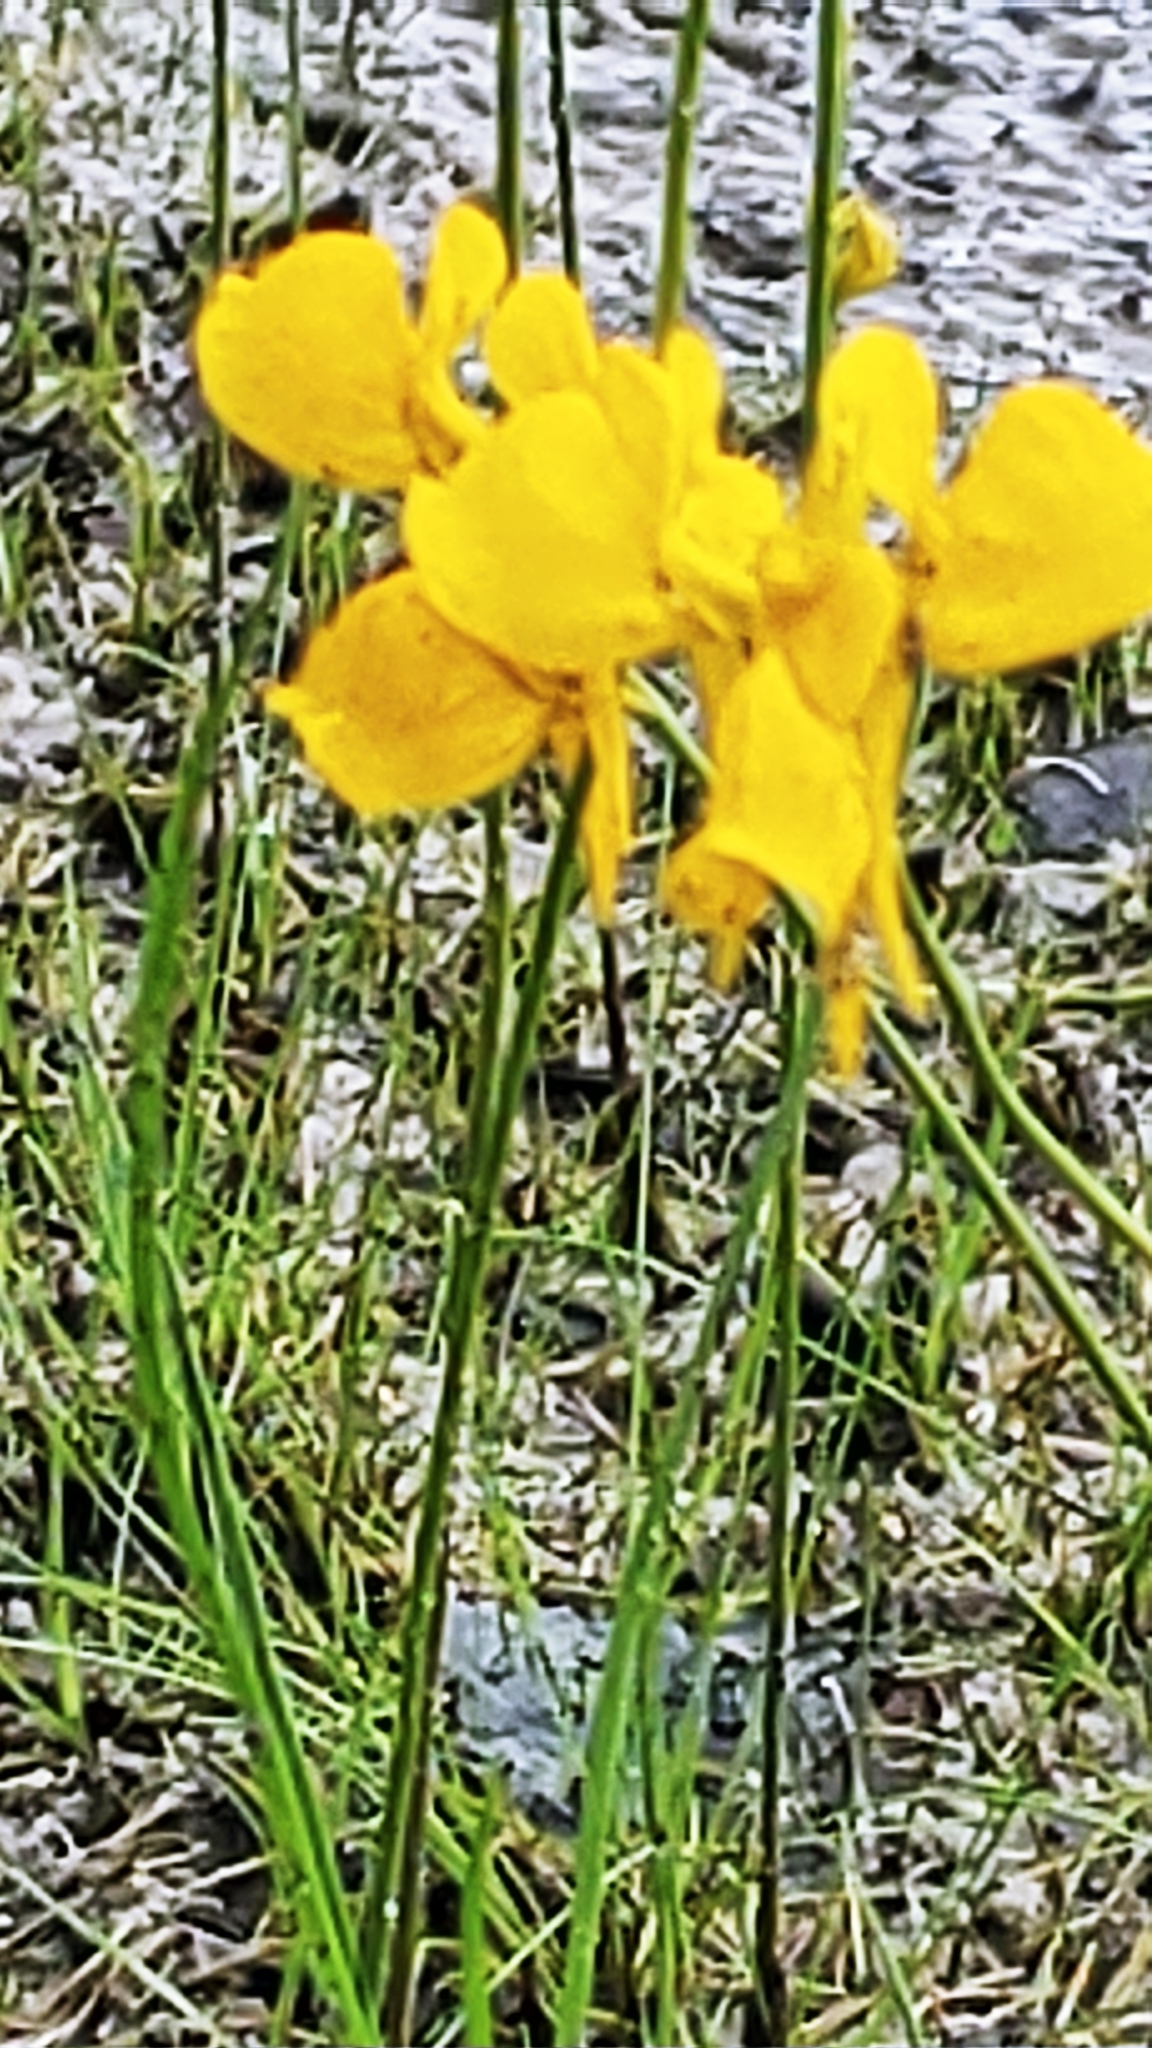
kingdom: Plantae
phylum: Tracheophyta
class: Magnoliopsida
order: Lamiales
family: Lentibulariaceae
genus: Utricularia
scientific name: Utricularia cornuta
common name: Horned bladderwort
